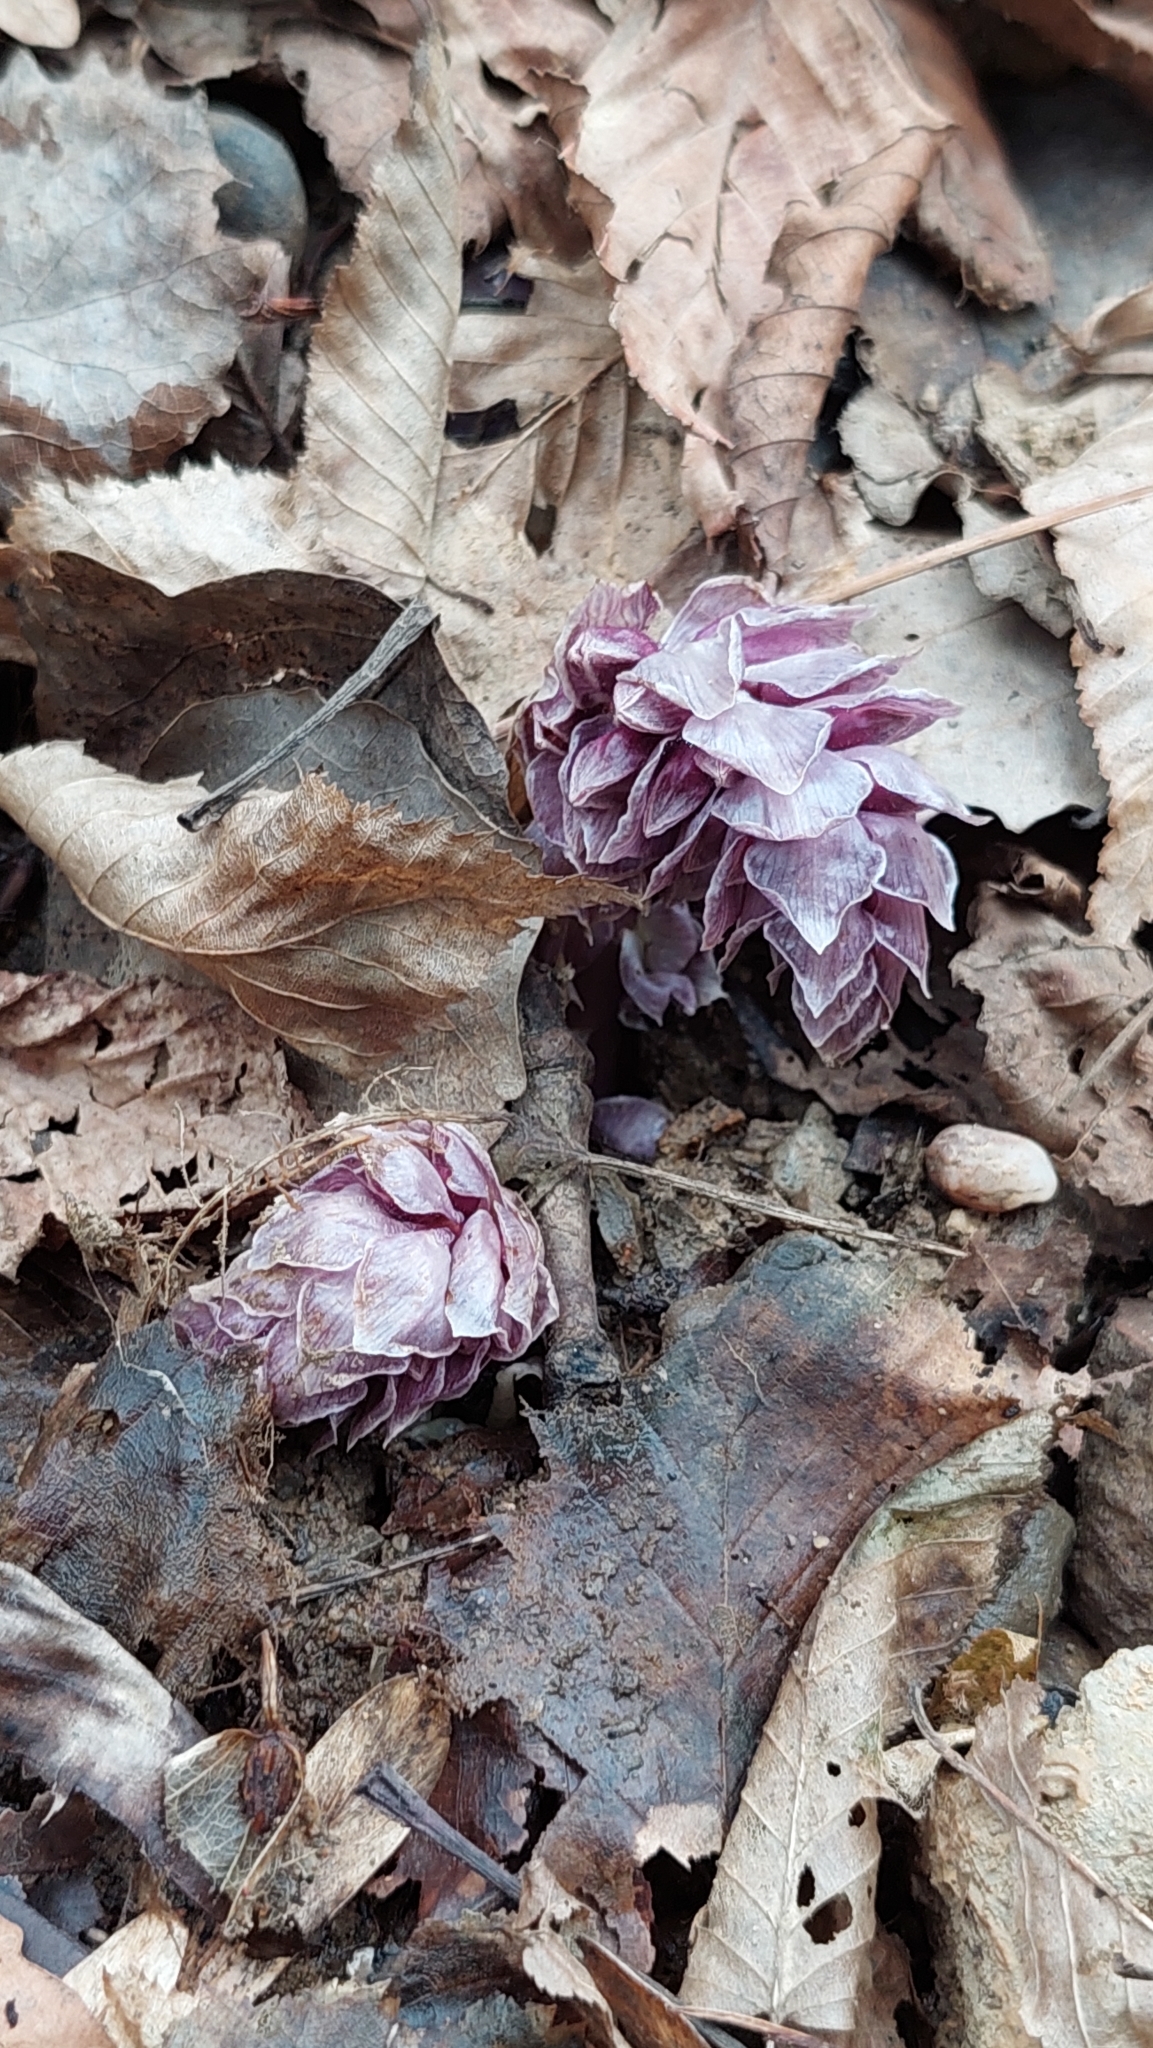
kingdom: Plantae
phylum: Tracheophyta
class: Magnoliopsida
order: Lamiales
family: Orobanchaceae
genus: Lathraea
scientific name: Lathraea squamaria
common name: Toothwort
